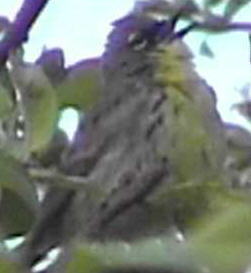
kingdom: Animalia
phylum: Chordata
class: Aves
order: Passeriformes
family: Parulidae
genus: Setophaga
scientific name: Setophaga kirtlandii
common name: Kirtland's warbler
